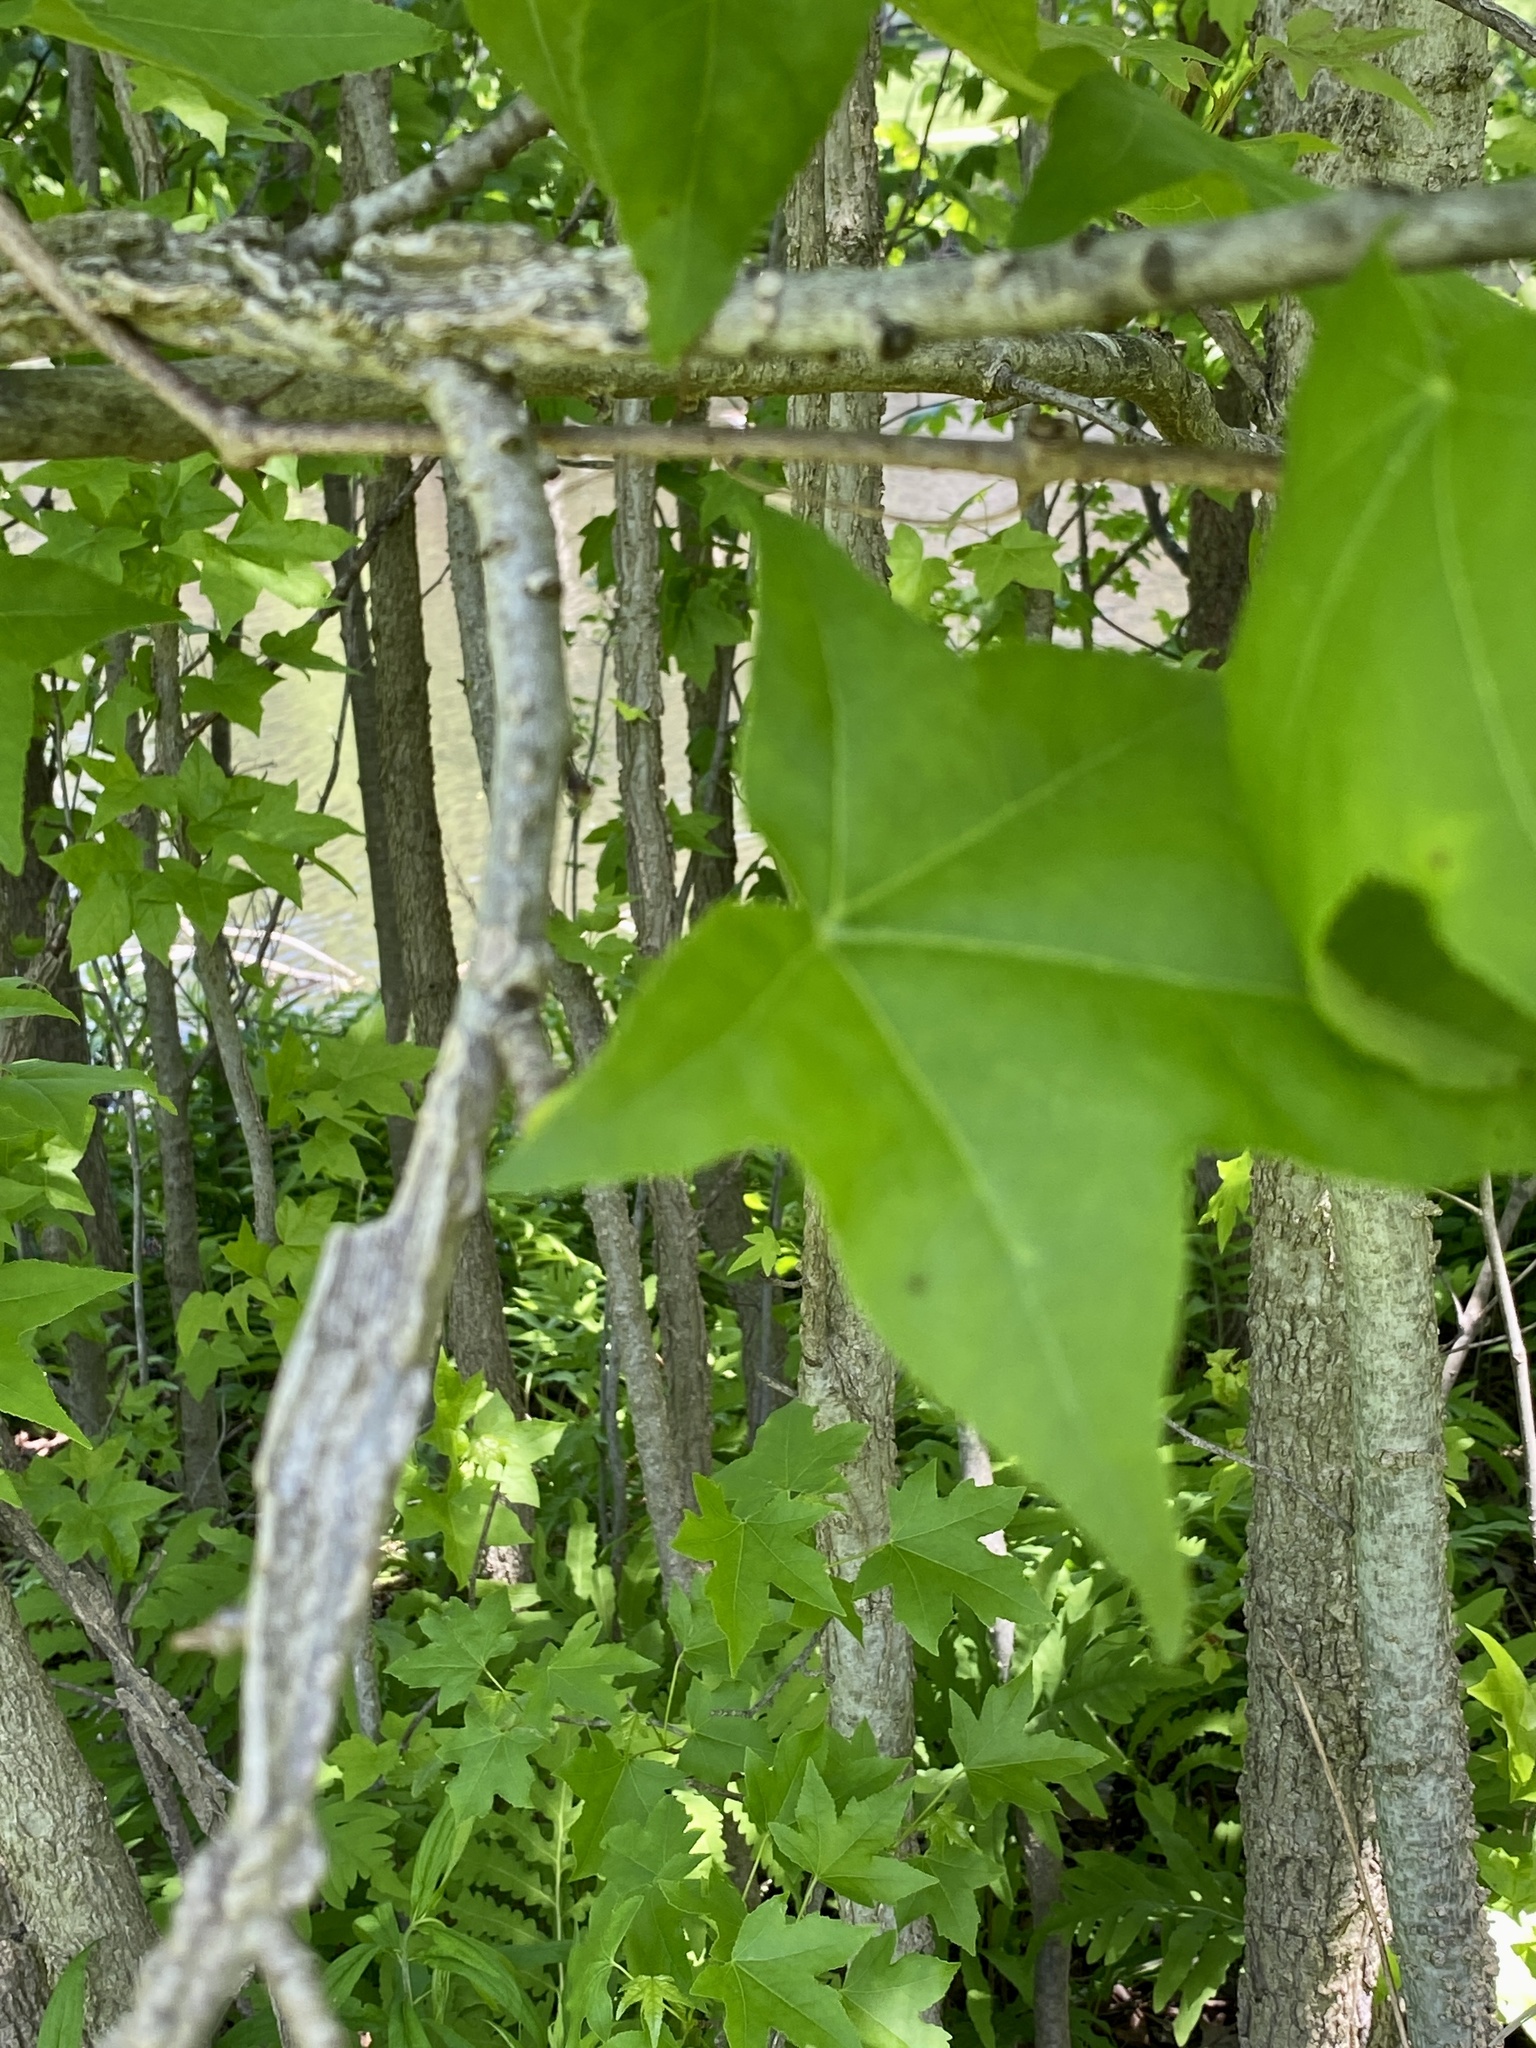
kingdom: Plantae
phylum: Tracheophyta
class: Magnoliopsida
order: Saxifragales
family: Altingiaceae
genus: Liquidambar
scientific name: Liquidambar styraciflua
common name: Sweet gum
